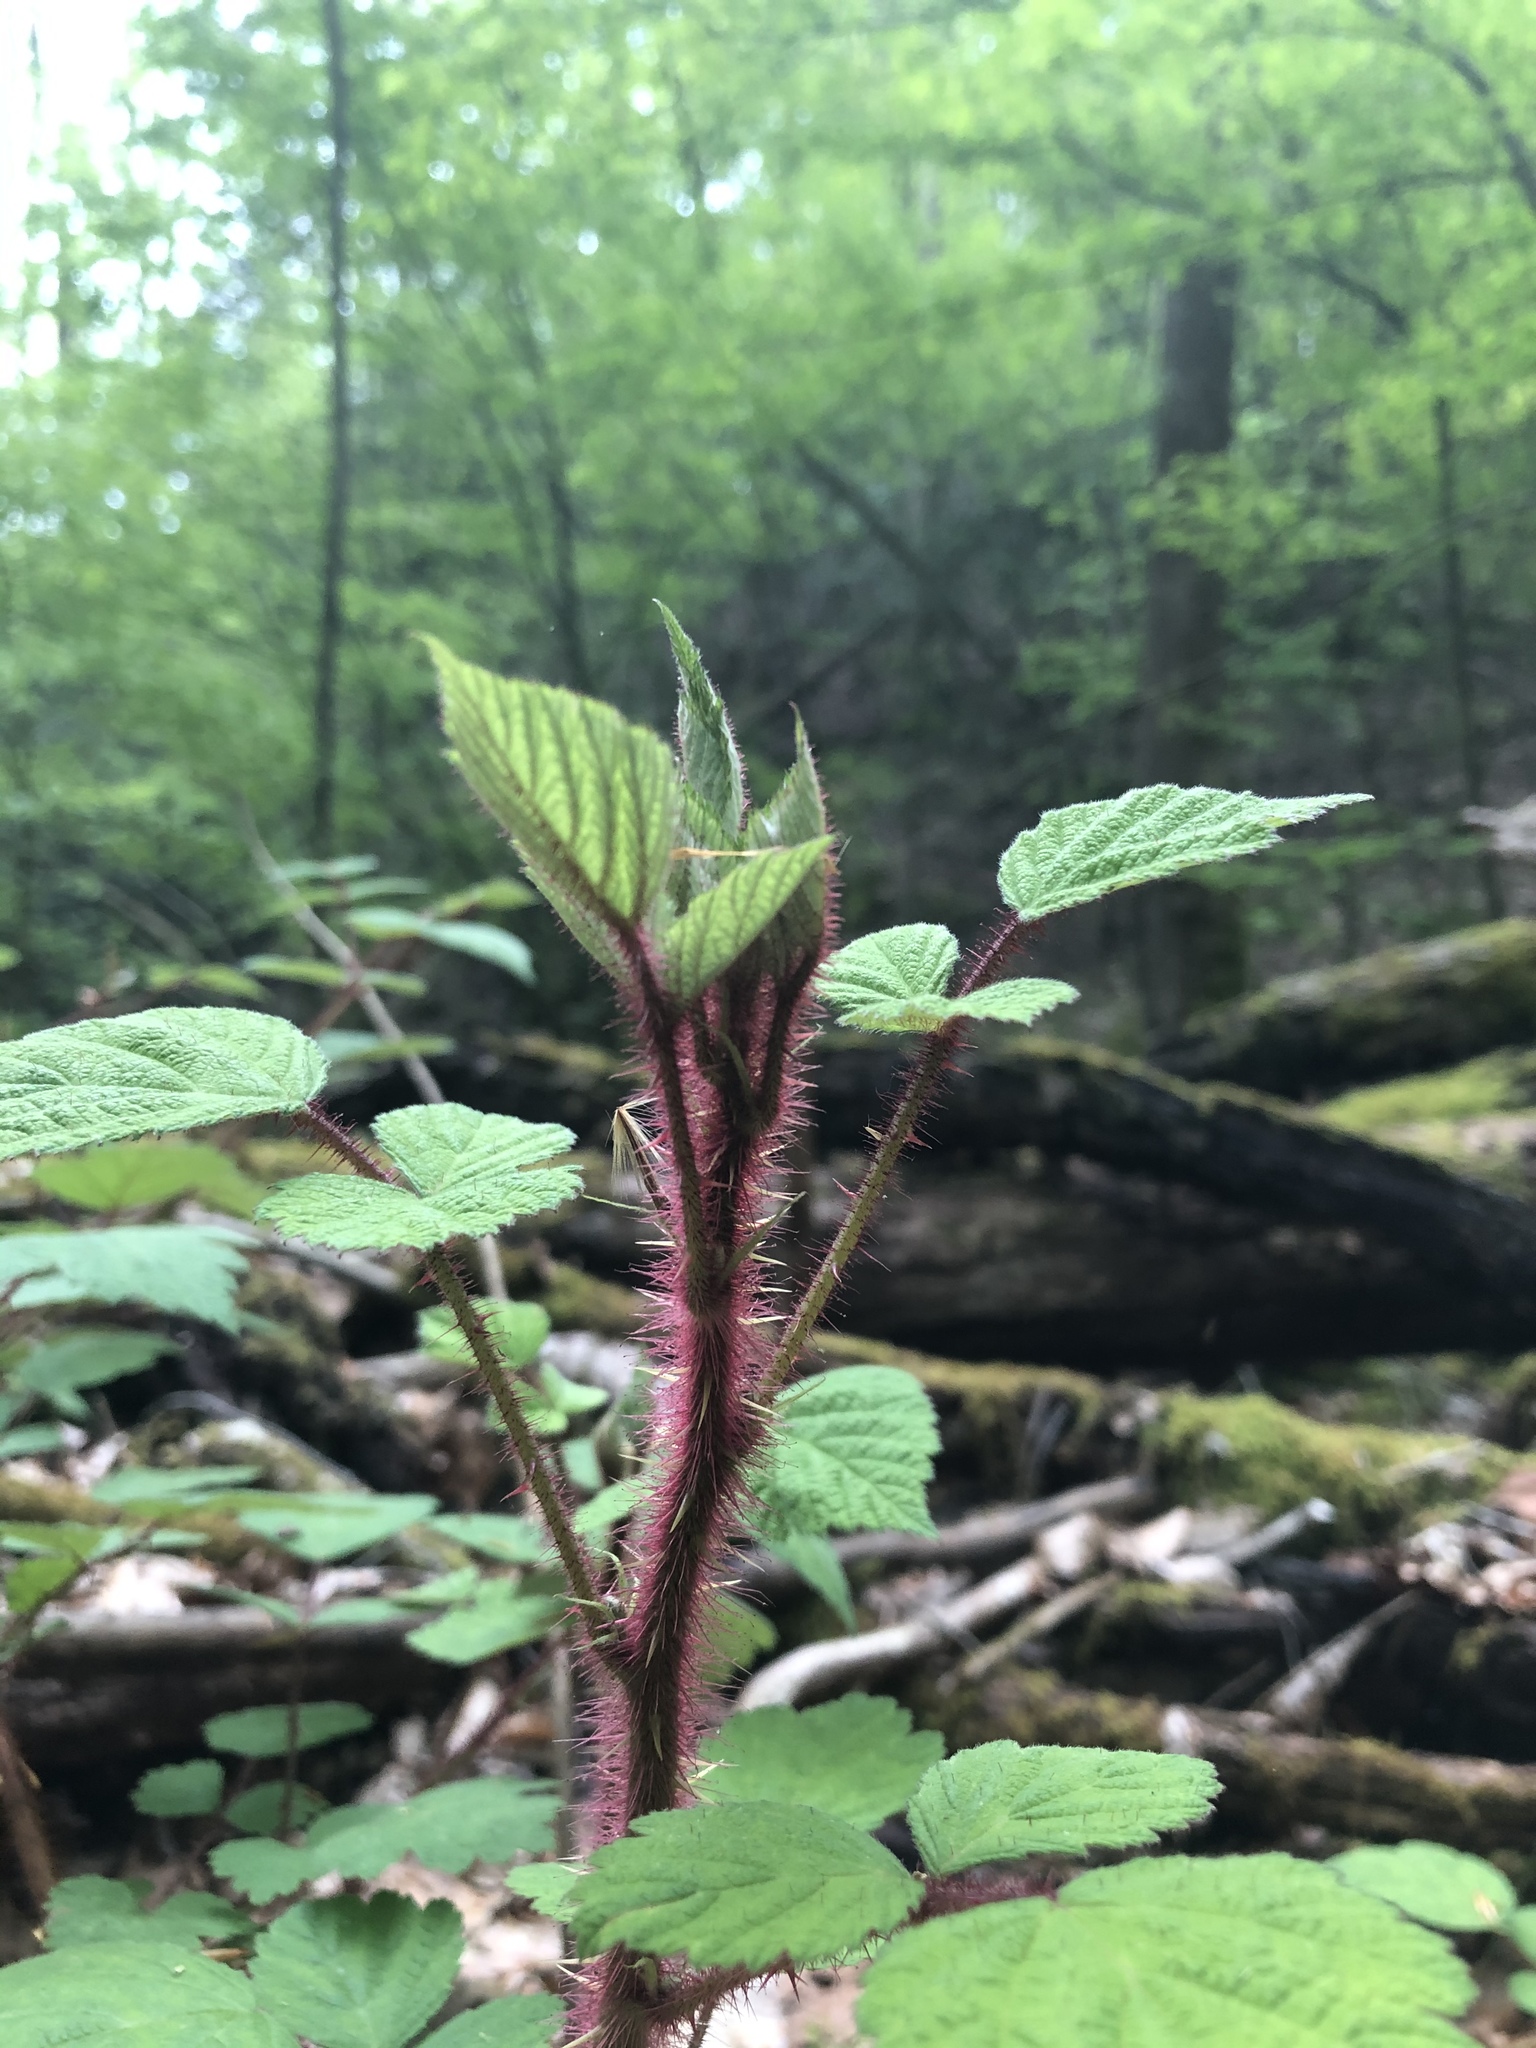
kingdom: Plantae
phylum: Tracheophyta
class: Magnoliopsida
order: Rosales
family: Rosaceae
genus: Rubus
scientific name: Rubus phoenicolasius
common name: Japanese wineberry
